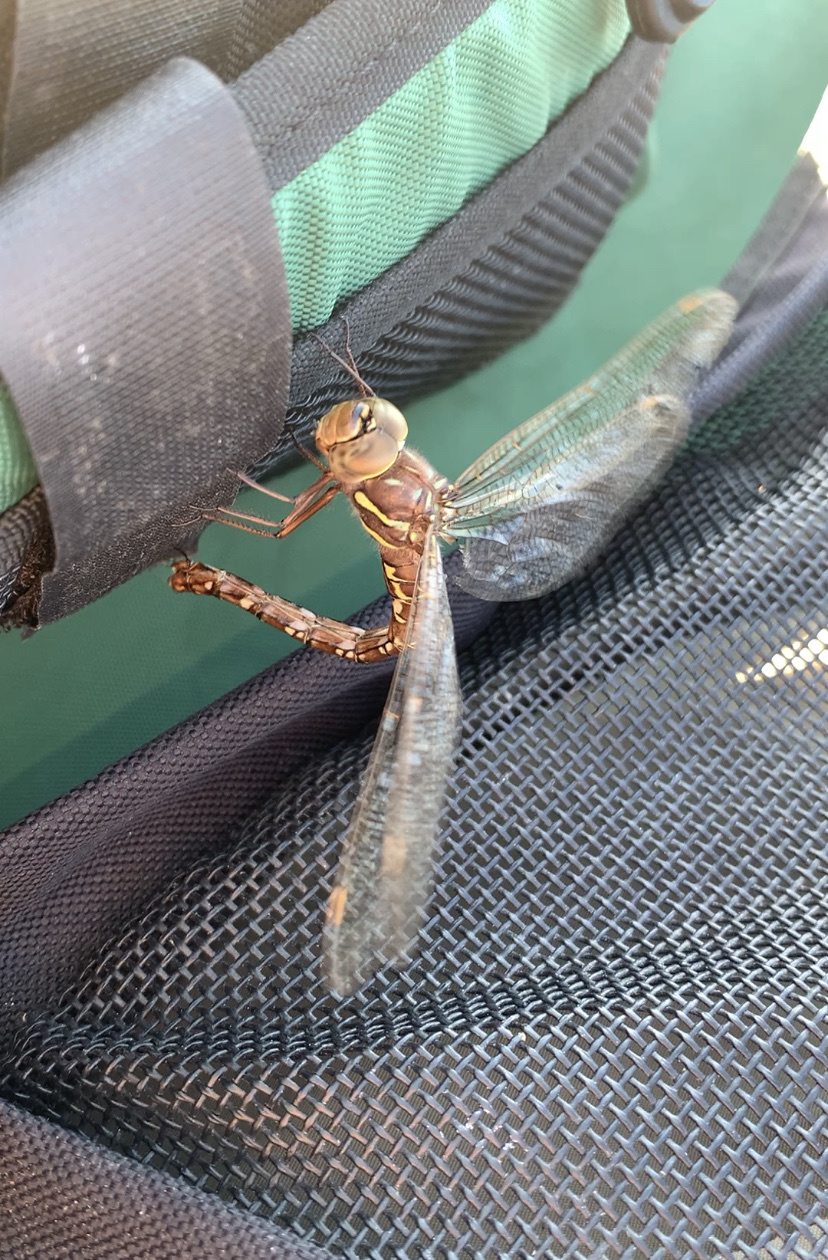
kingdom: Animalia
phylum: Arthropoda
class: Insecta
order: Odonata
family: Aeshnidae
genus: Aeshna
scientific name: Aeshna umbrosa
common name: Shadow darner
